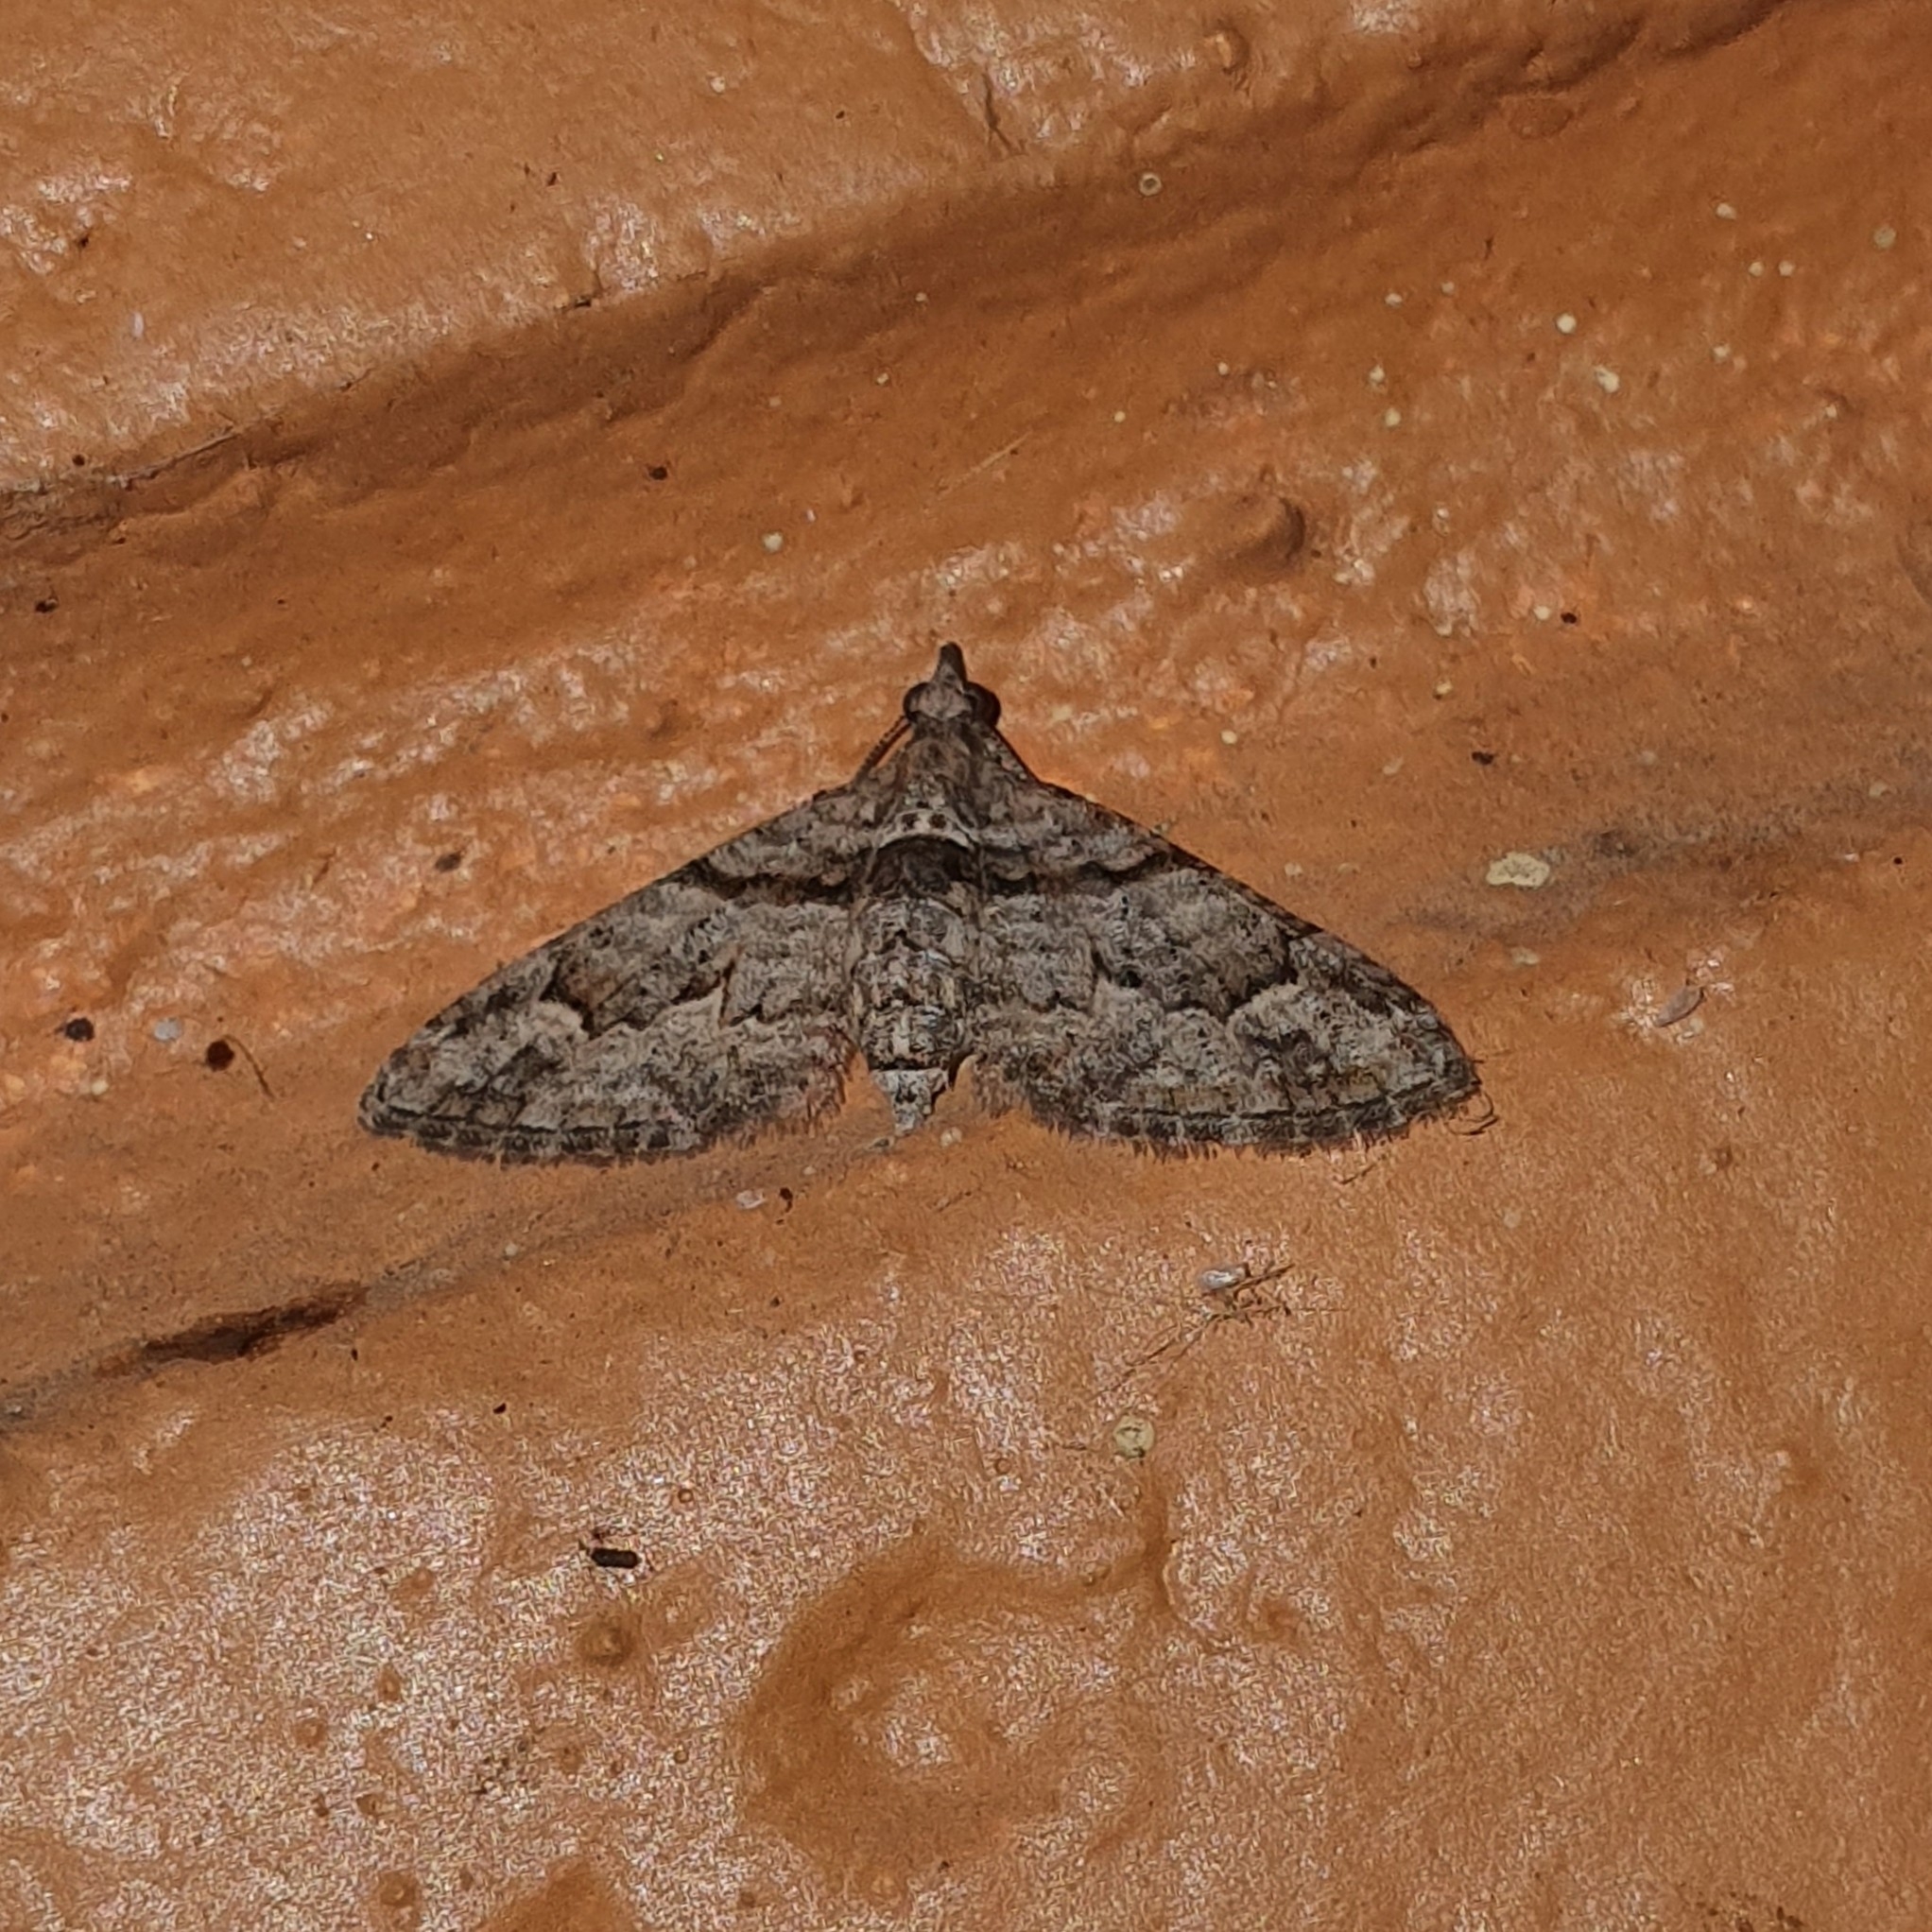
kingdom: Animalia
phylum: Arthropoda
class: Insecta
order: Lepidoptera
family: Geometridae
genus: Phrissogonus
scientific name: Phrissogonus laticostata
